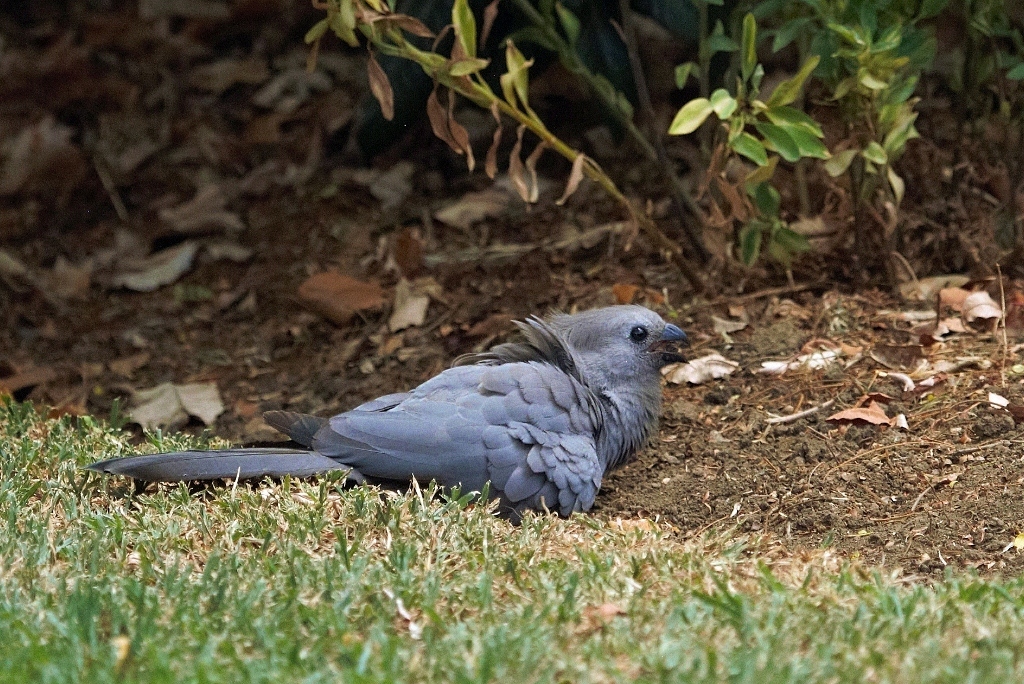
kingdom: Animalia
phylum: Chordata
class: Aves
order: Musophagiformes
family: Musophagidae
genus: Corythaixoides
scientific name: Corythaixoides concolor
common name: Grey go-away-bird
